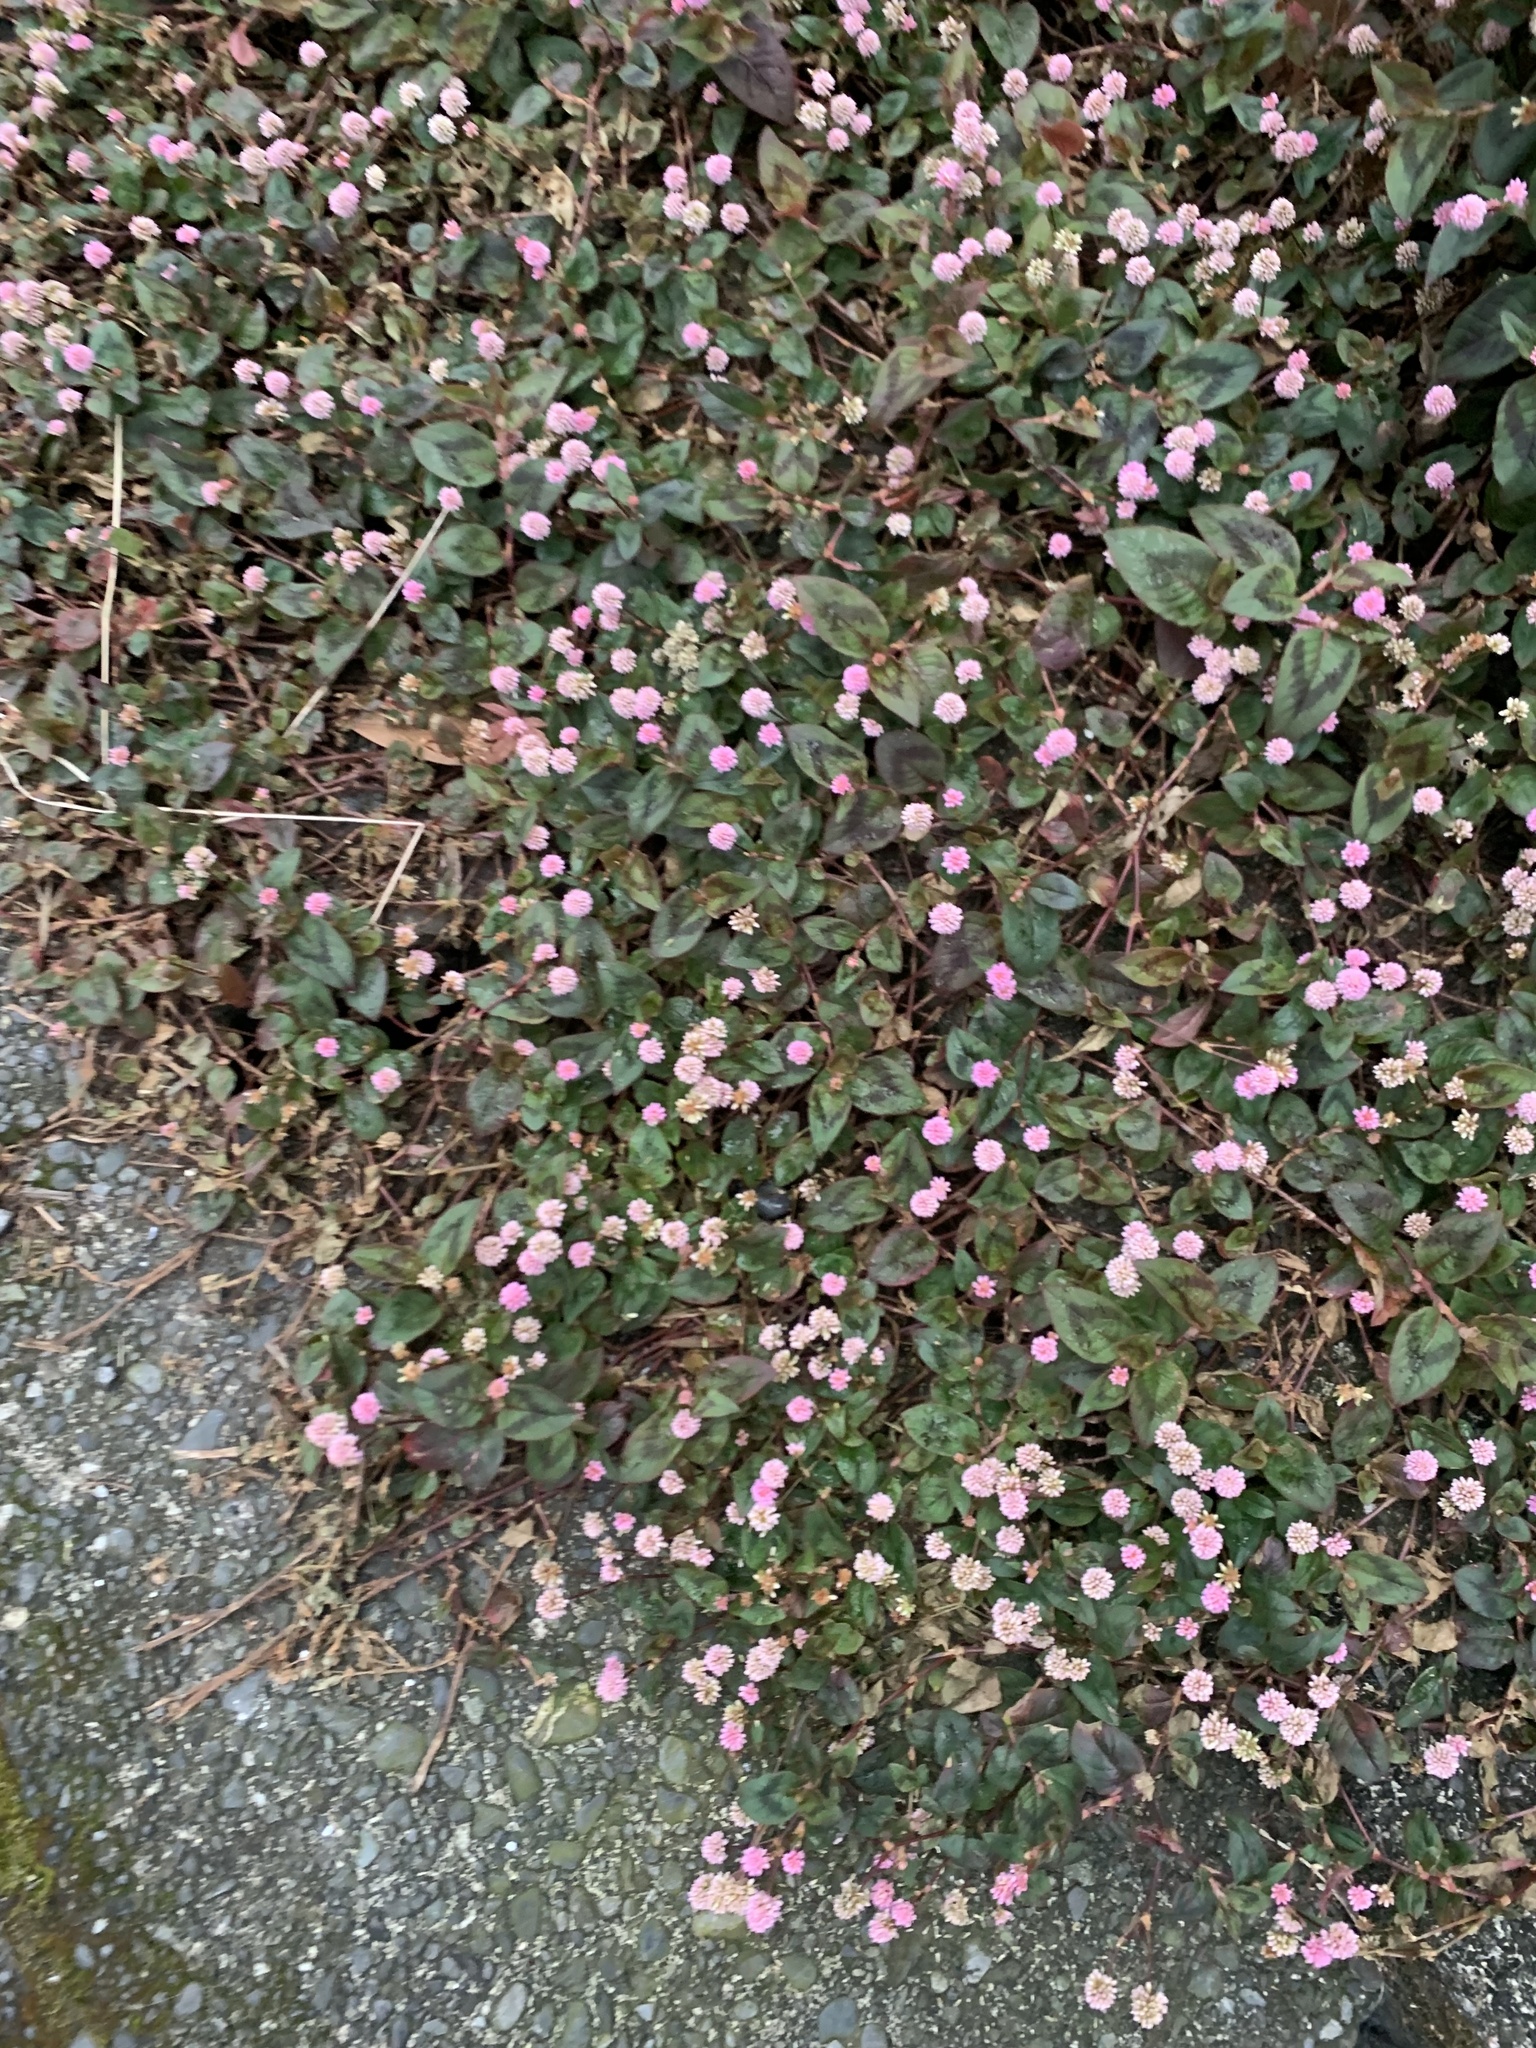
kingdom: Plantae
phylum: Tracheophyta
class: Magnoliopsida
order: Caryophyllales
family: Polygonaceae
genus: Persicaria
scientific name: Persicaria capitata
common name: Pinkhead smartweed
